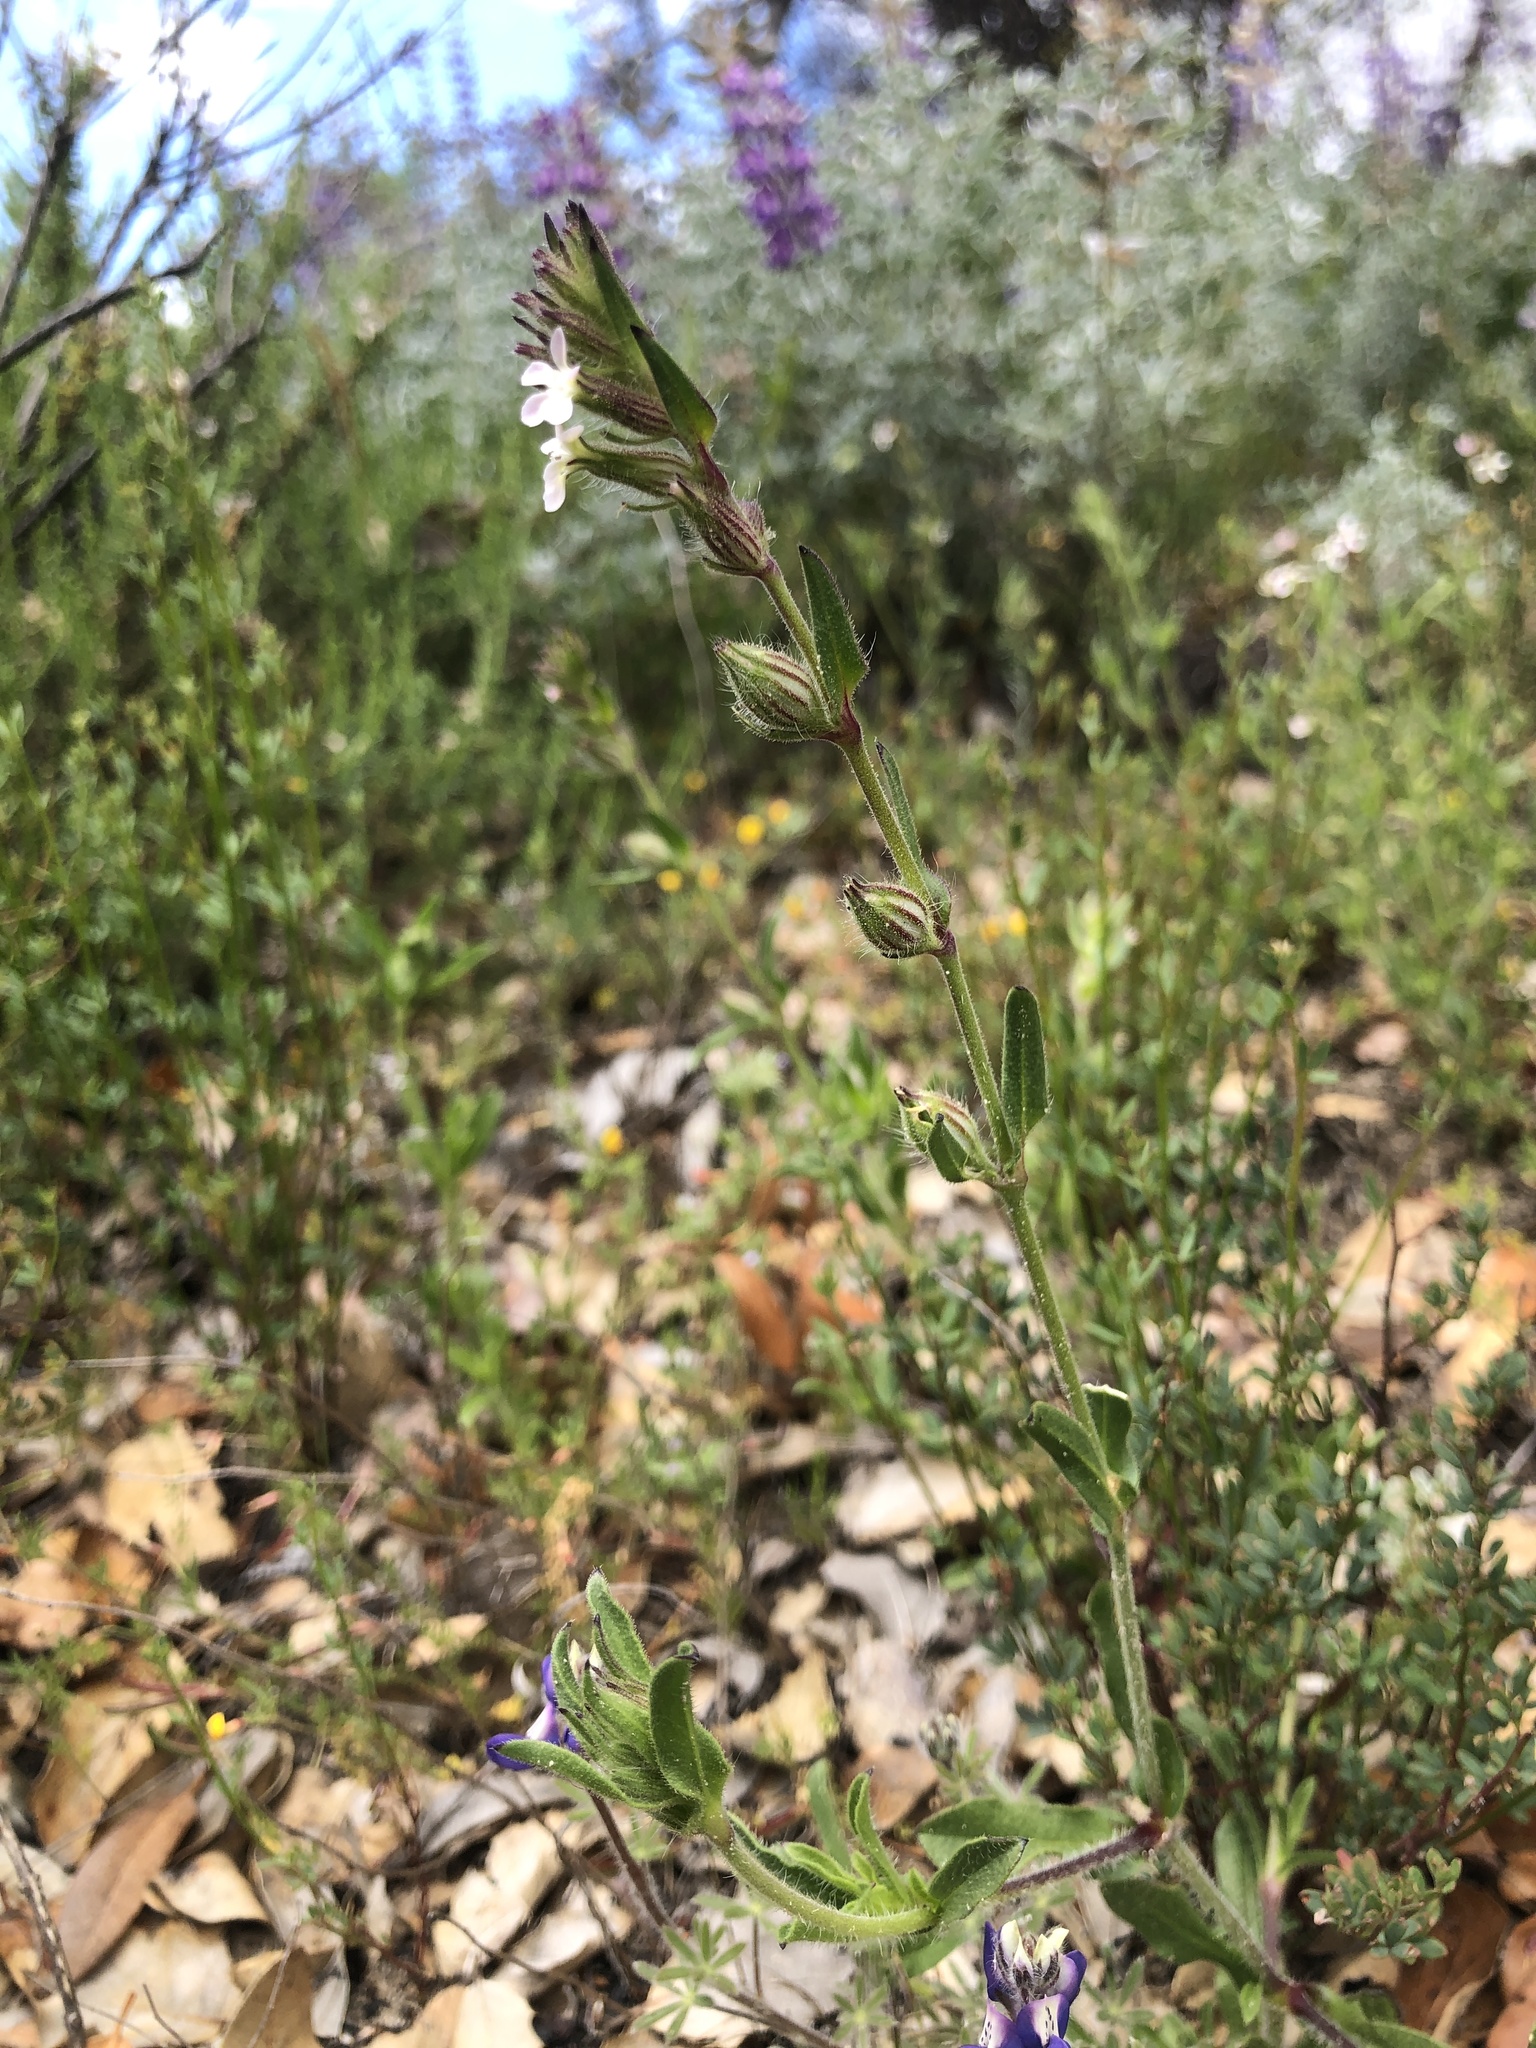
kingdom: Plantae
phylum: Tracheophyta
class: Magnoliopsida
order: Caryophyllales
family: Caryophyllaceae
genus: Silene
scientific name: Silene gallica
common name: Small-flowered catchfly
